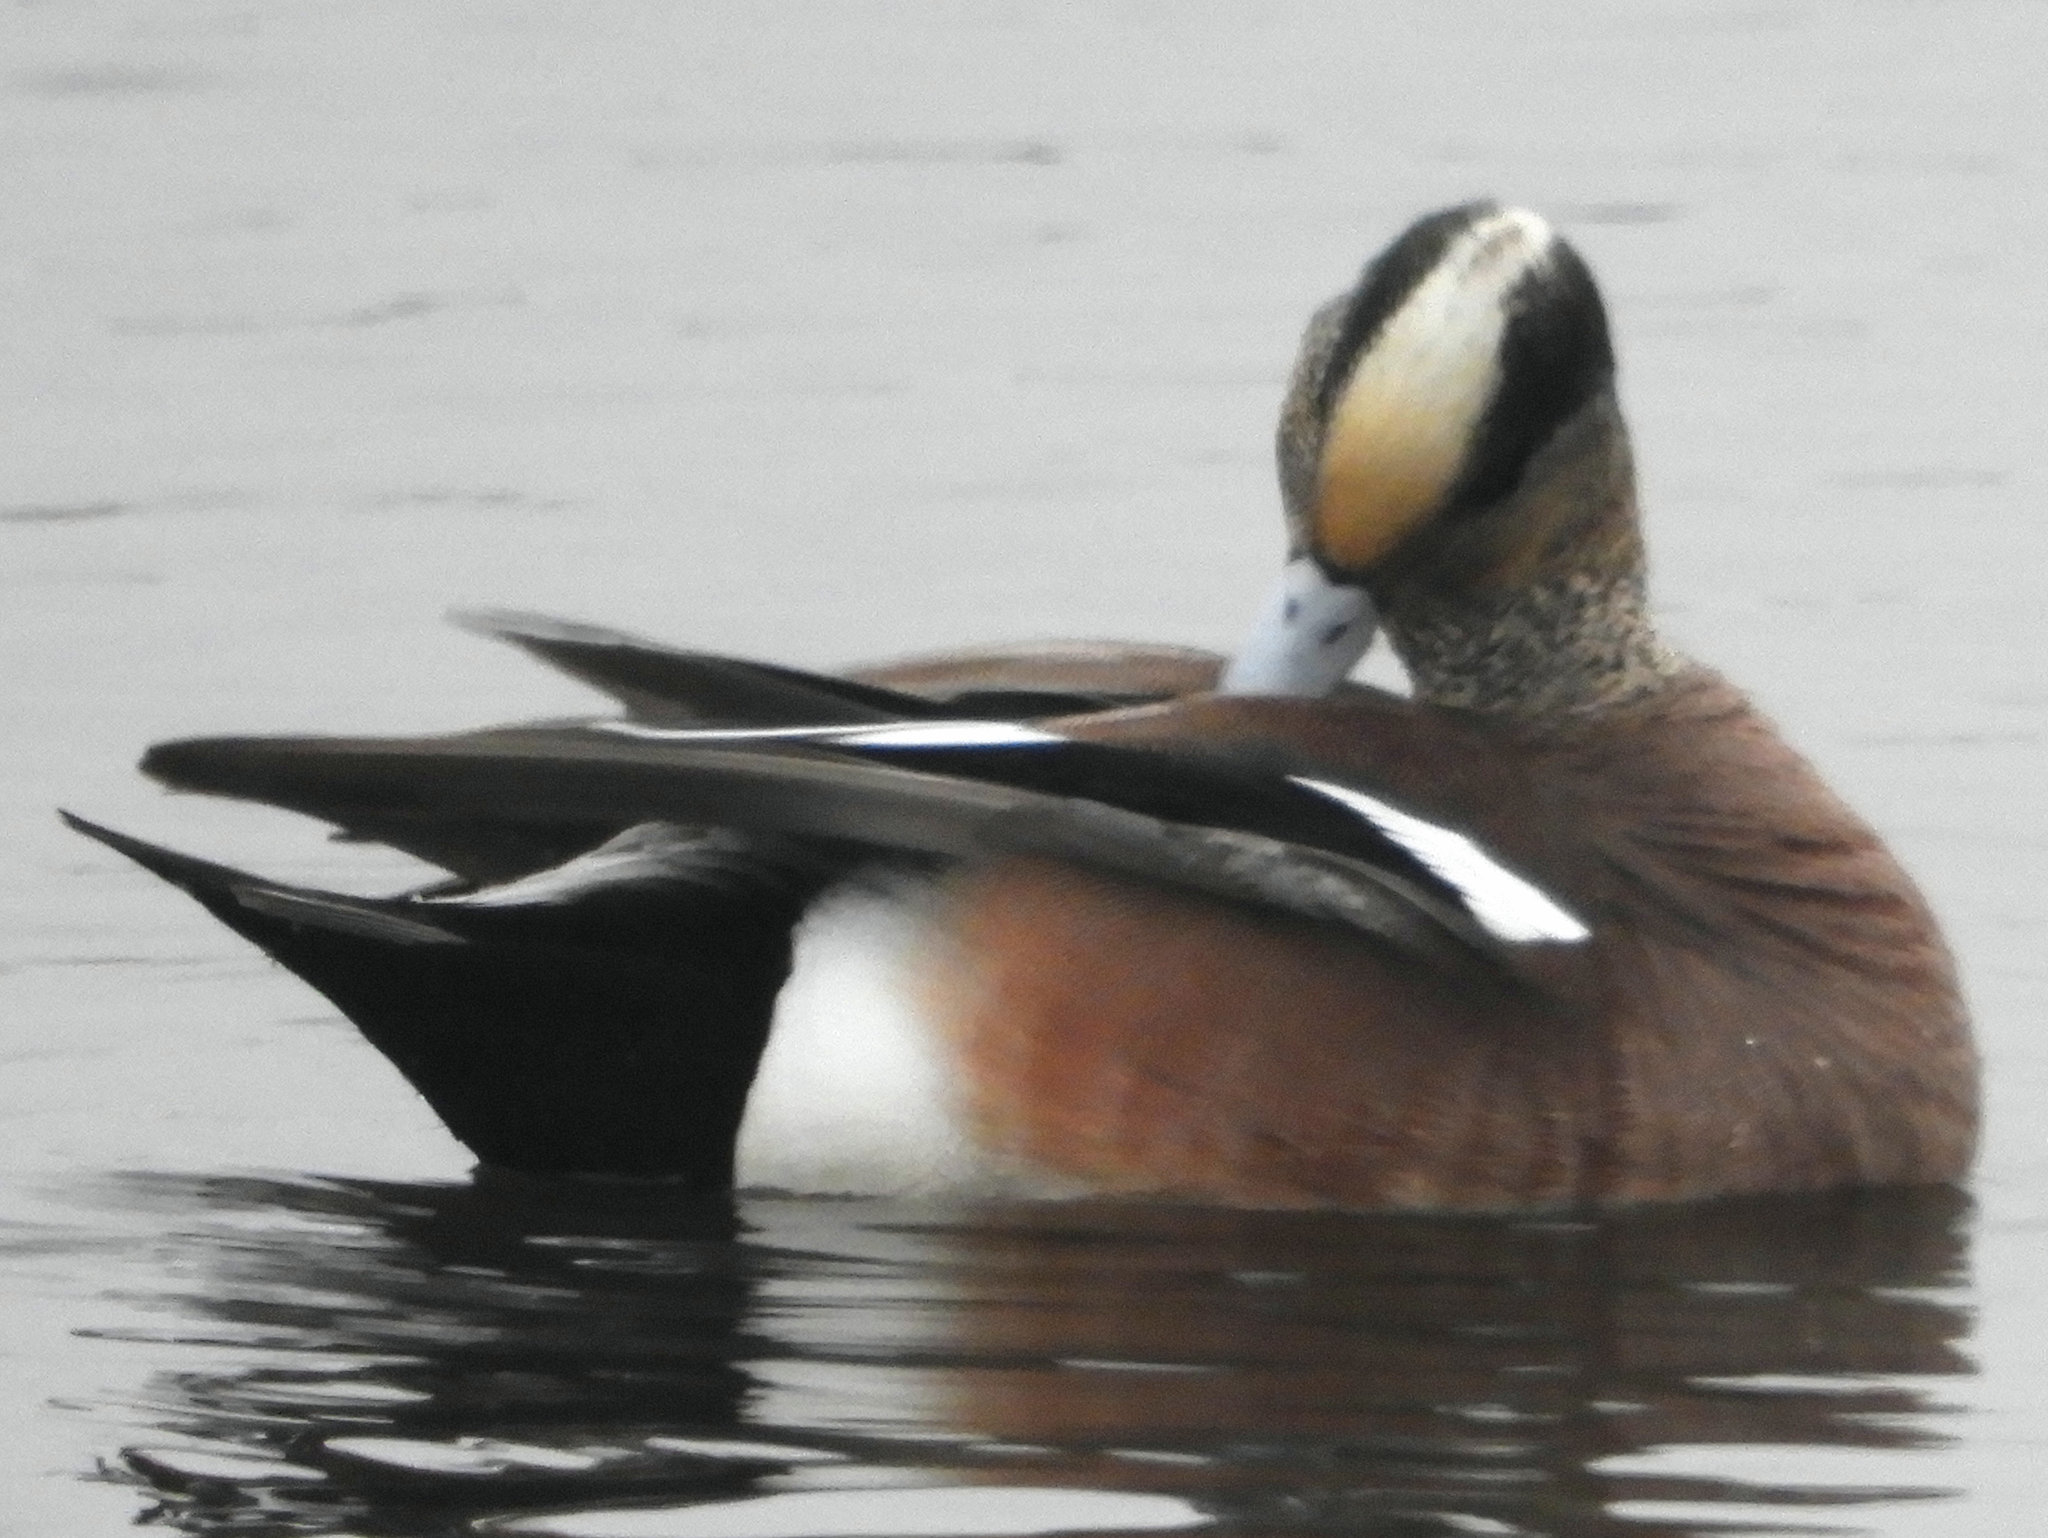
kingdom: Animalia
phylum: Chordata
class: Aves
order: Anseriformes
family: Anatidae
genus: Mareca
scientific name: Mareca americana
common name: American wigeon
